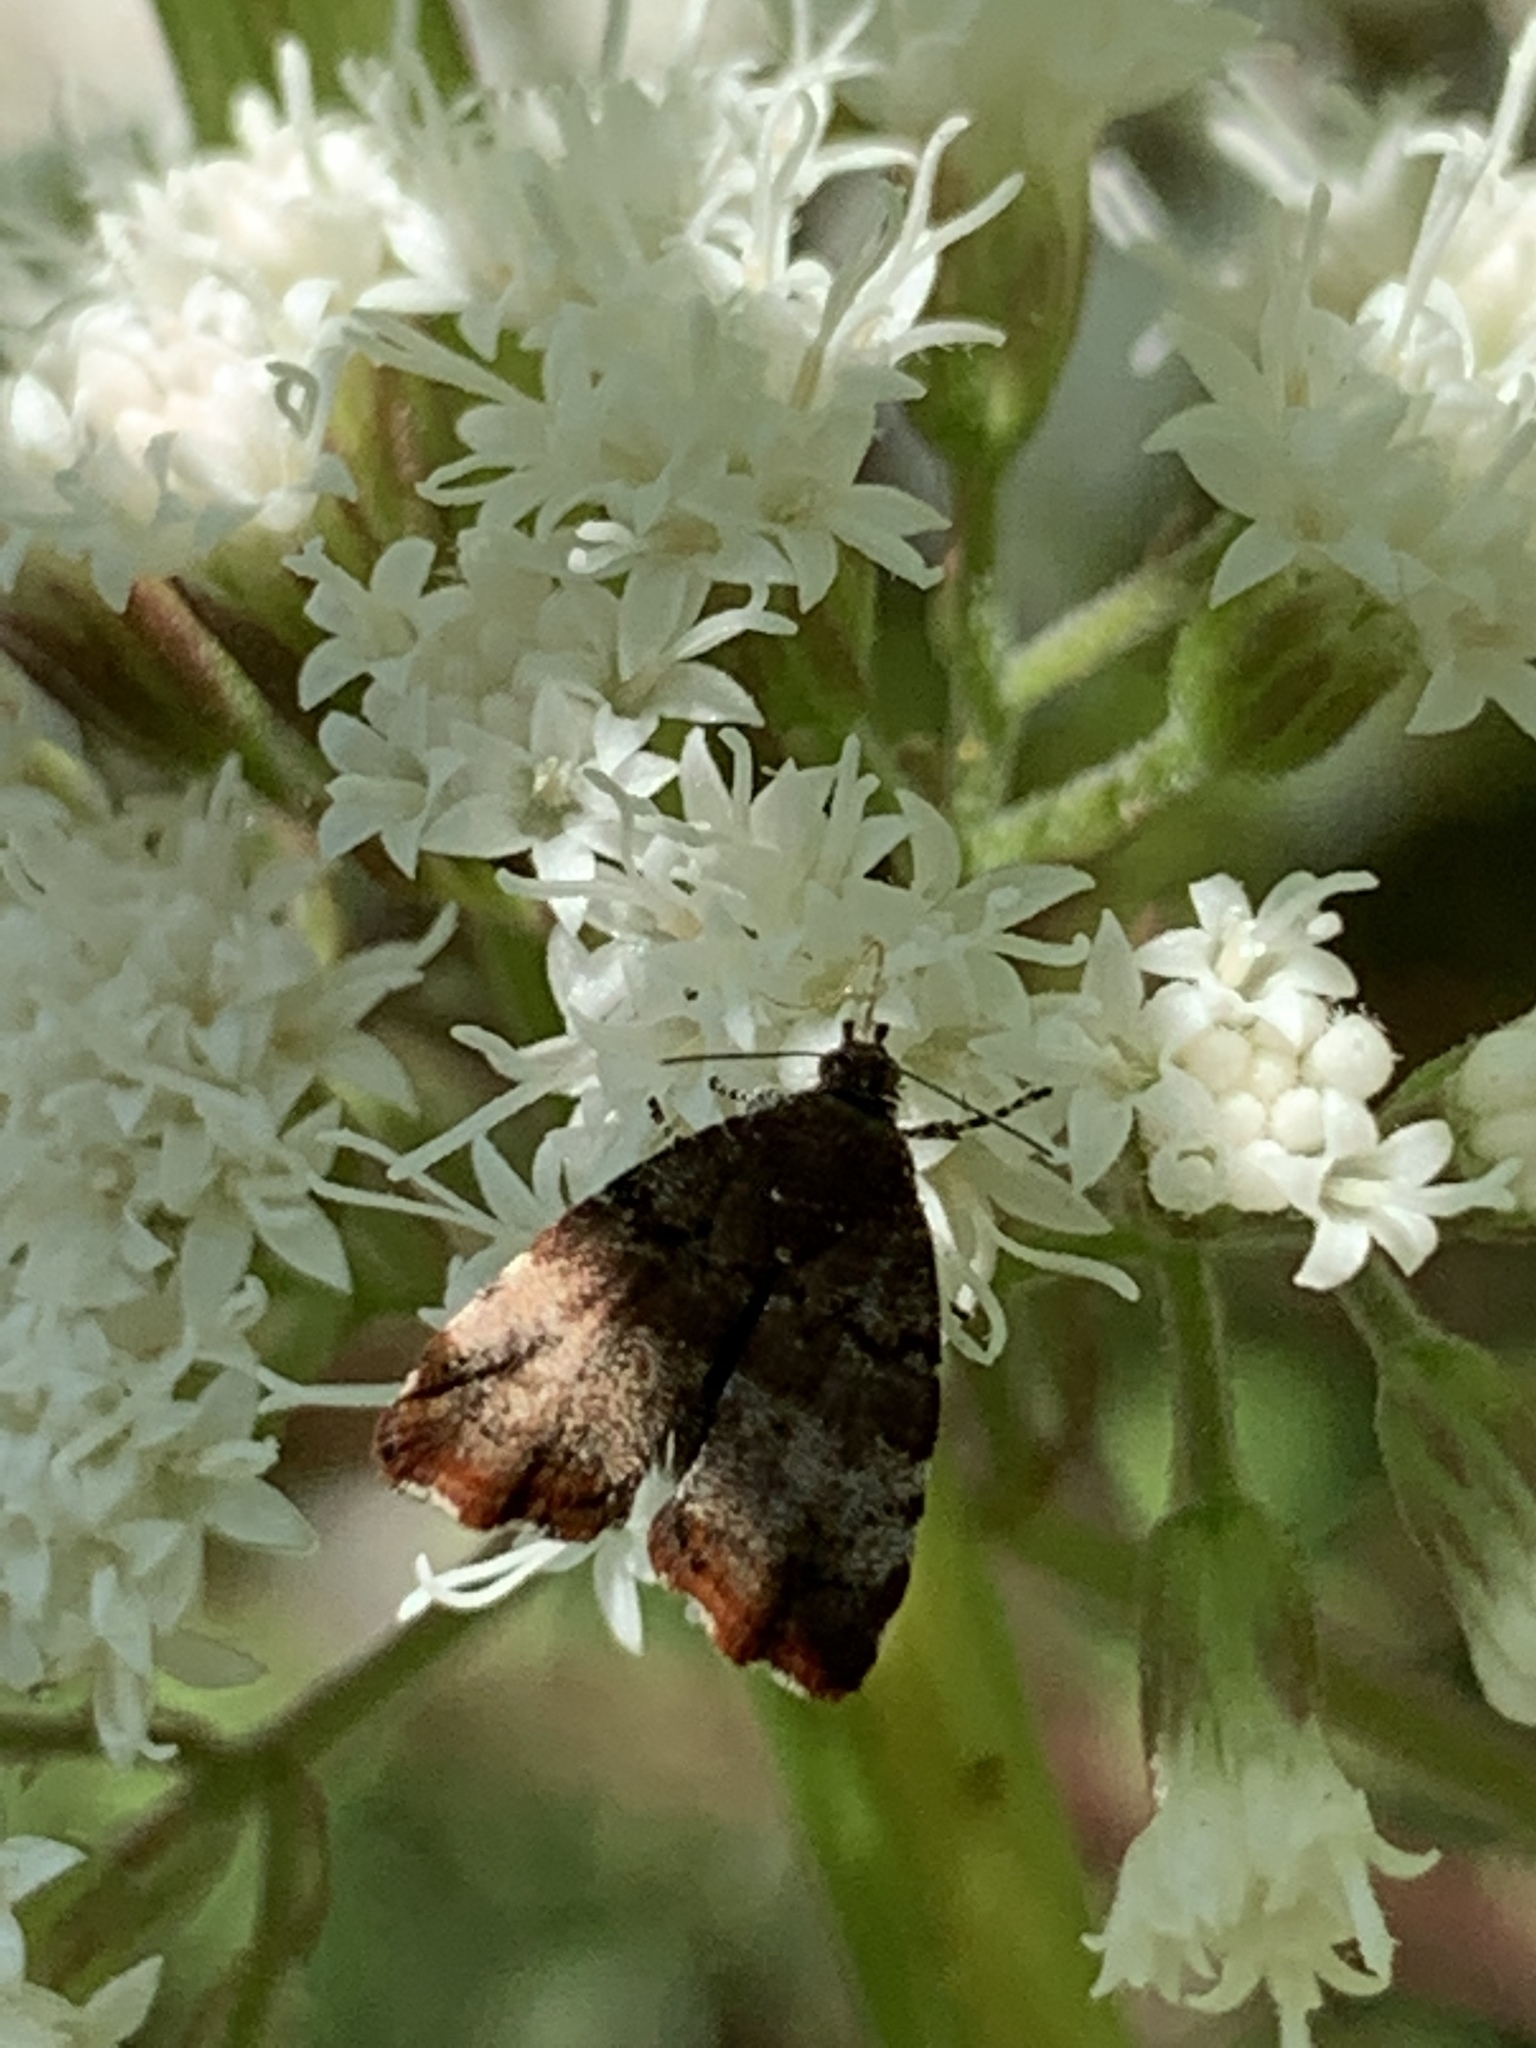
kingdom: Animalia
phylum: Arthropoda
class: Insecta
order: Lepidoptera
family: Choreutidae
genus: Choreutis
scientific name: Choreutis pariana
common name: Apple leaf skeletoniser
